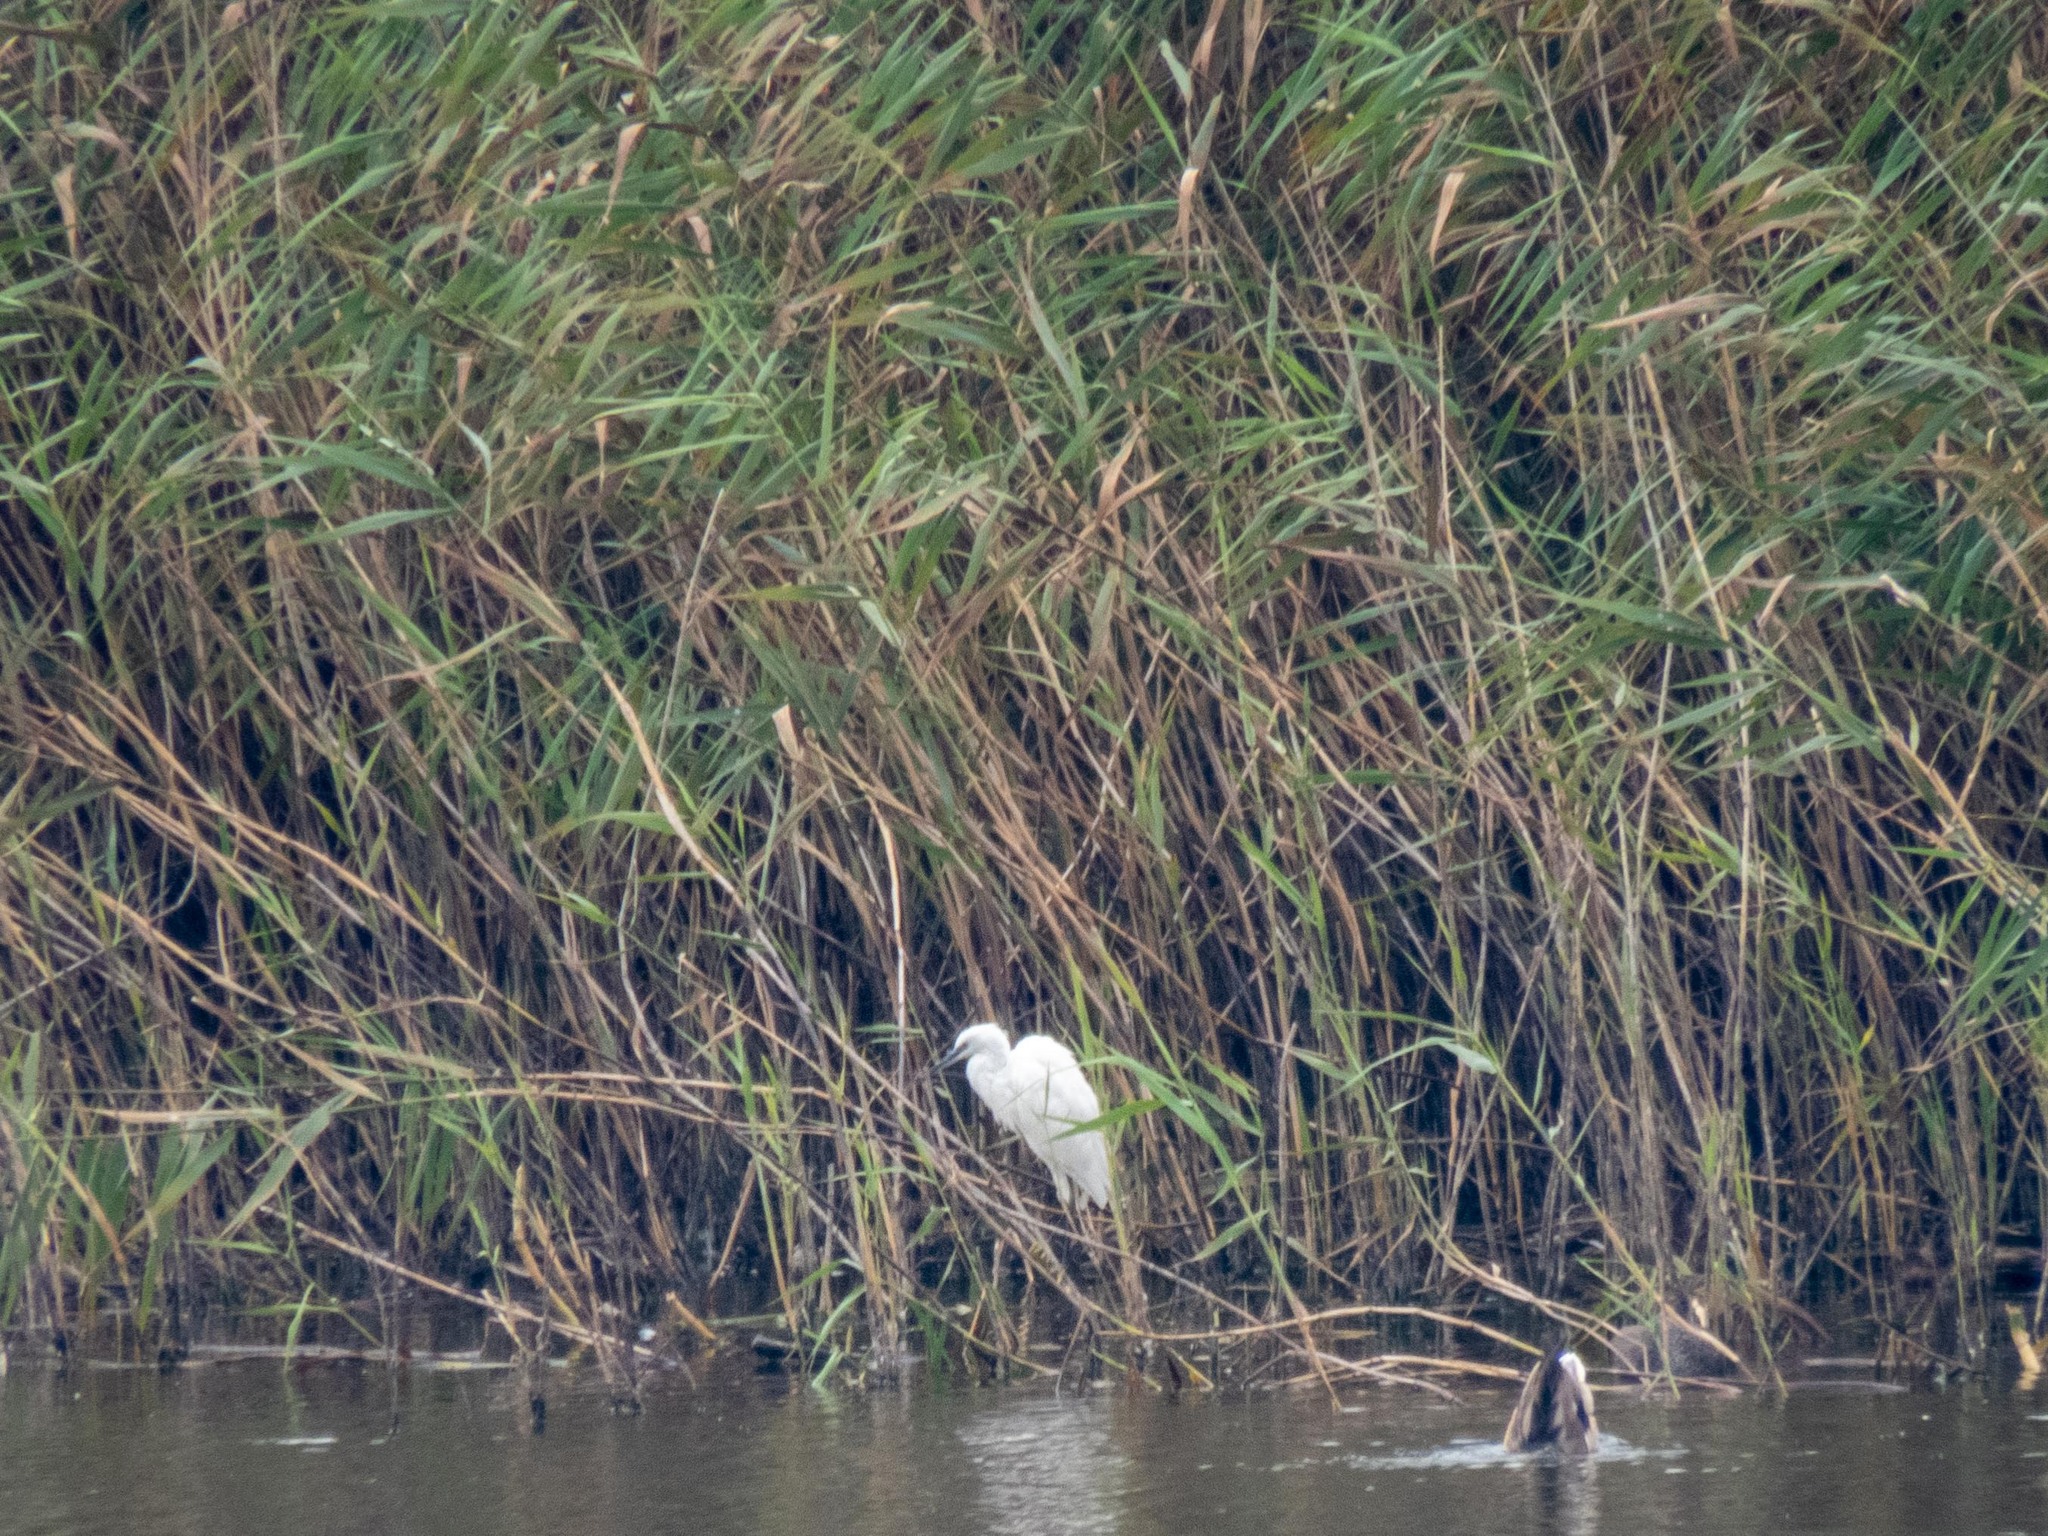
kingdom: Animalia
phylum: Chordata
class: Aves
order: Pelecaniformes
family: Ardeidae
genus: Egretta
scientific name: Egretta garzetta
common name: Little egret
